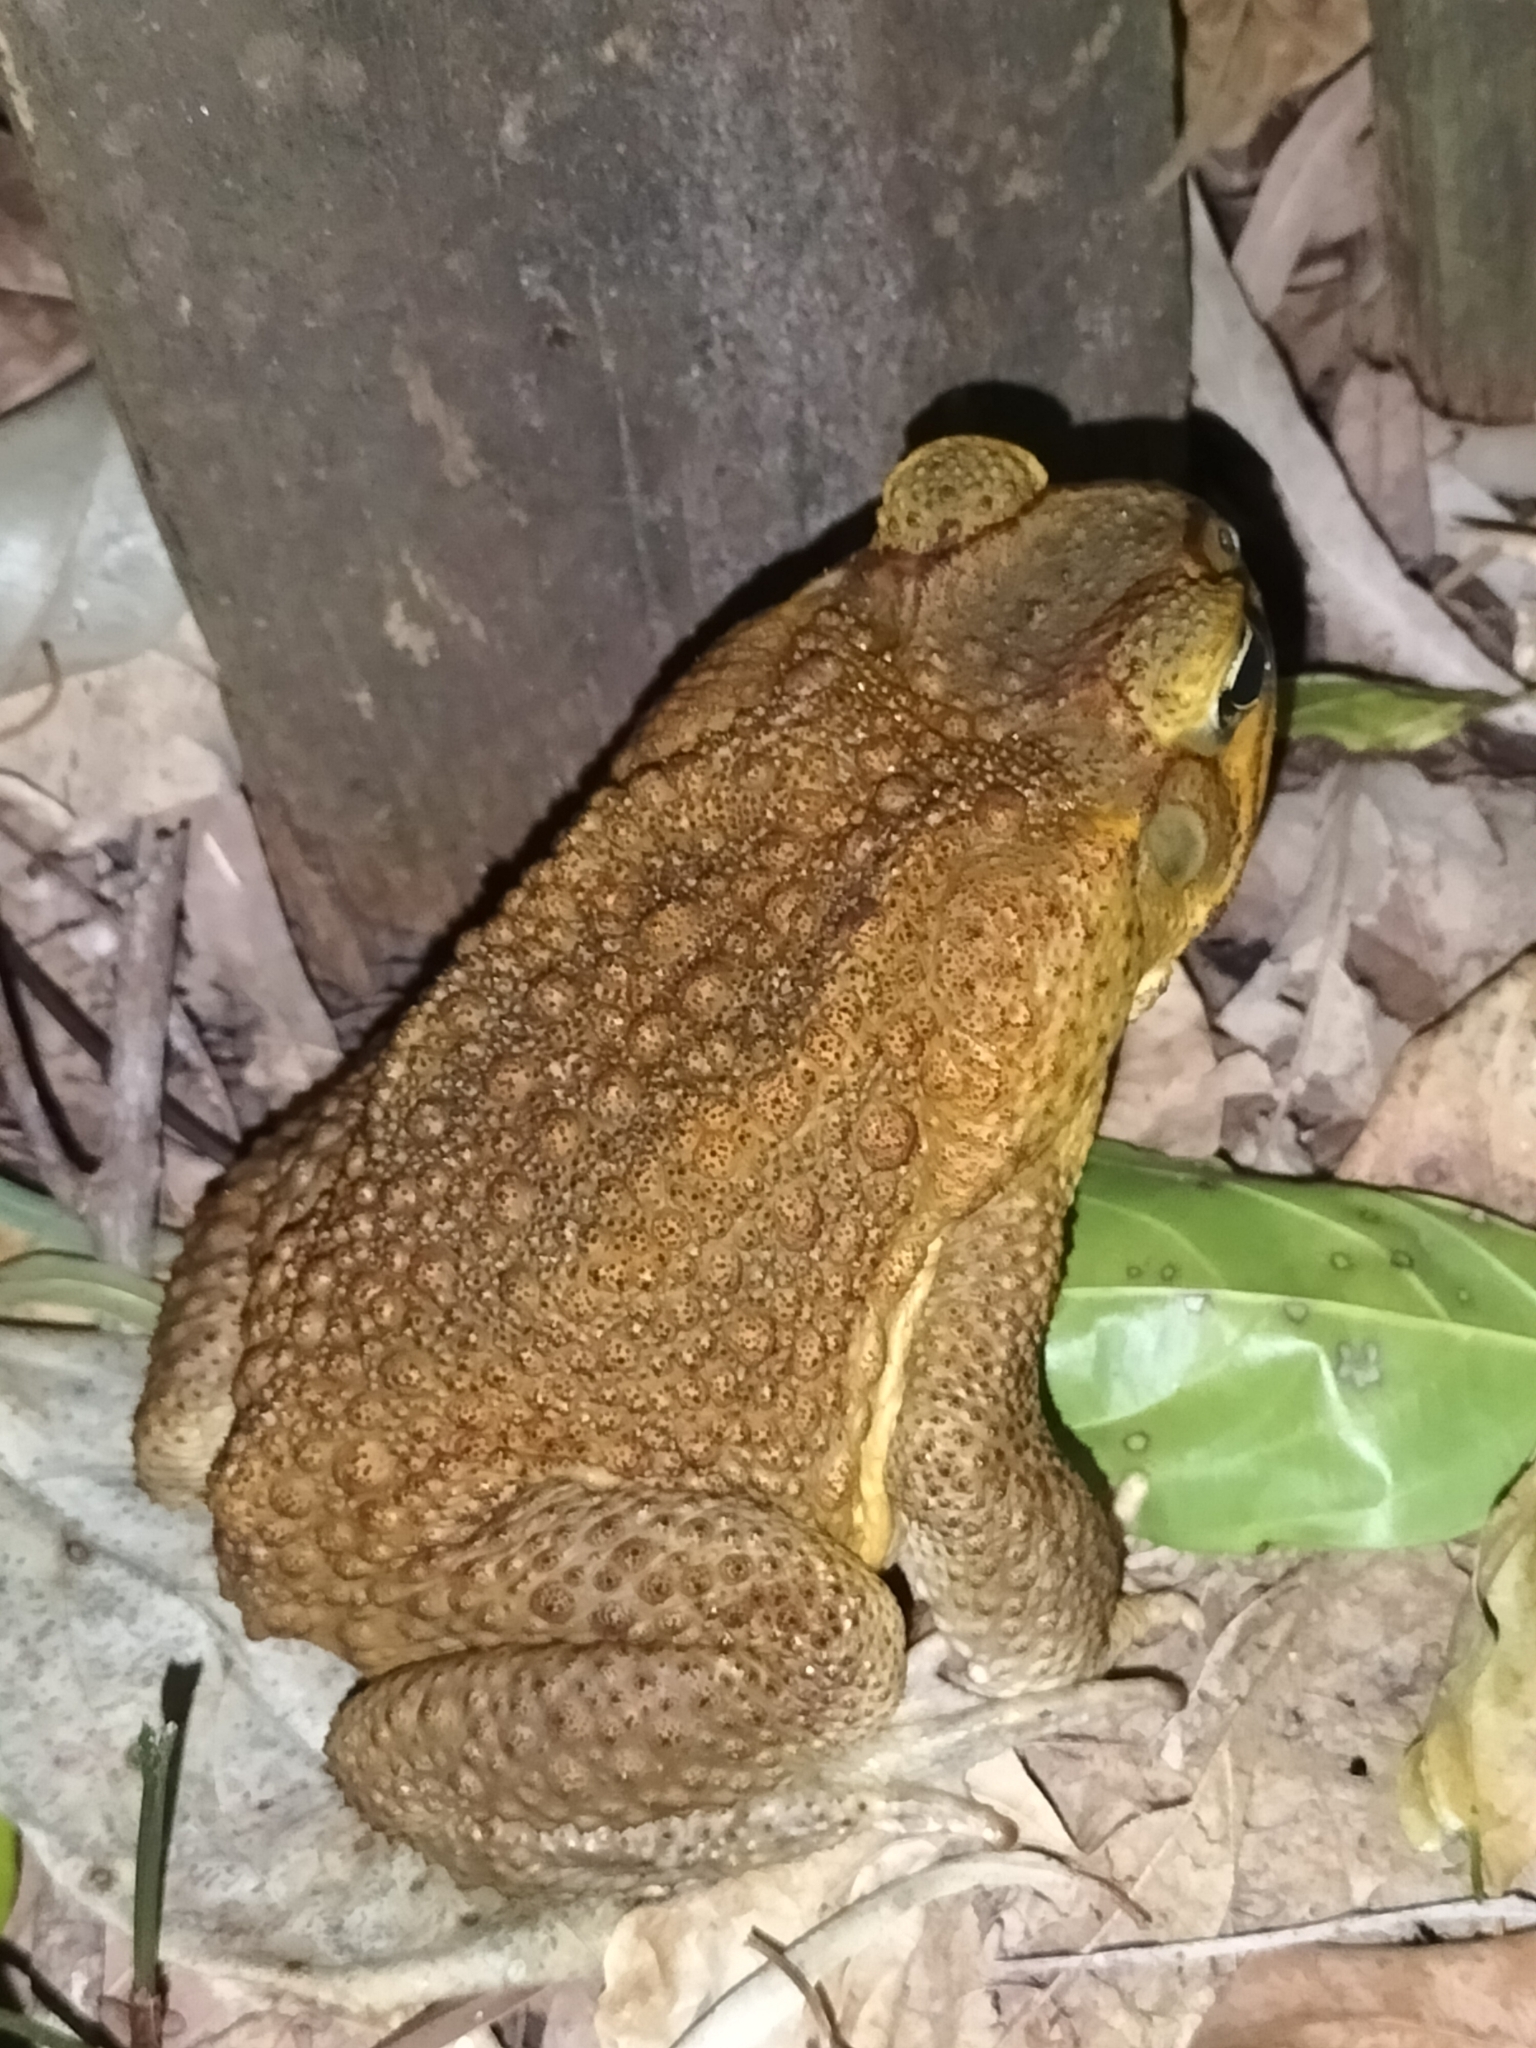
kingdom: Animalia
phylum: Chordata
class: Amphibia
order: Anura
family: Bufonidae
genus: Rhinella
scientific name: Rhinella marina
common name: Cane toad
